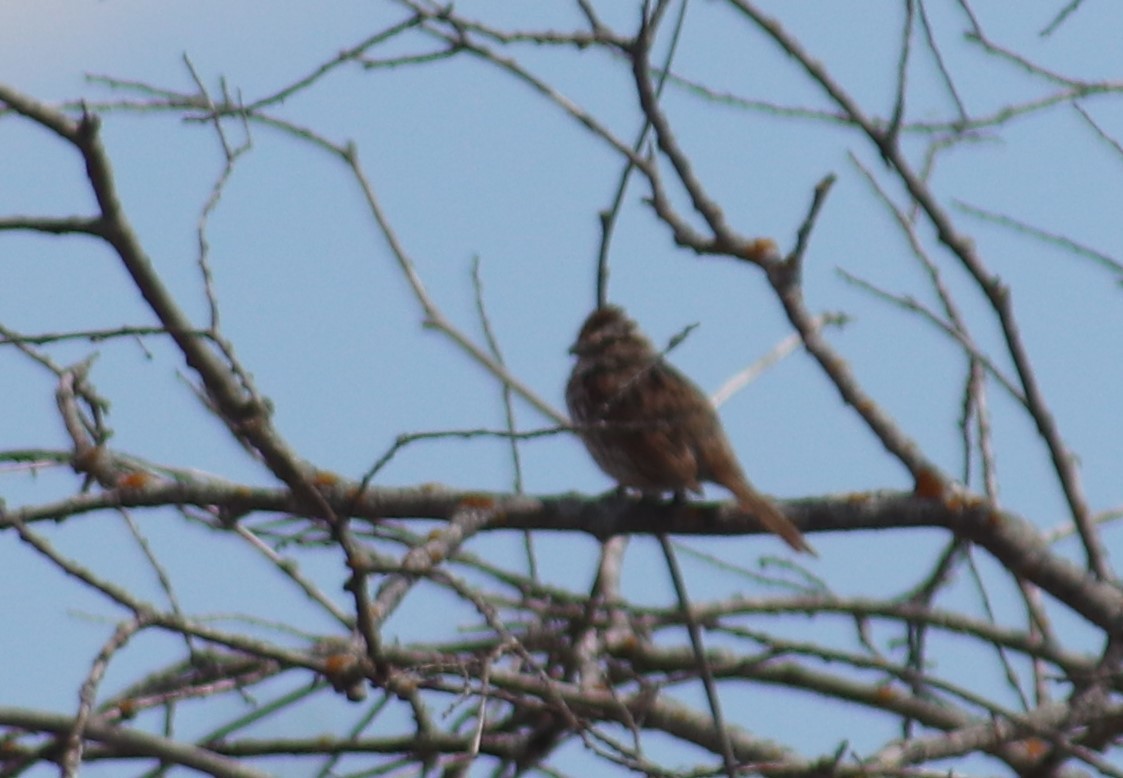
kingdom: Animalia
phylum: Chordata
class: Aves
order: Passeriformes
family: Passerellidae
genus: Melospiza
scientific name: Melospiza melodia
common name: Song sparrow
